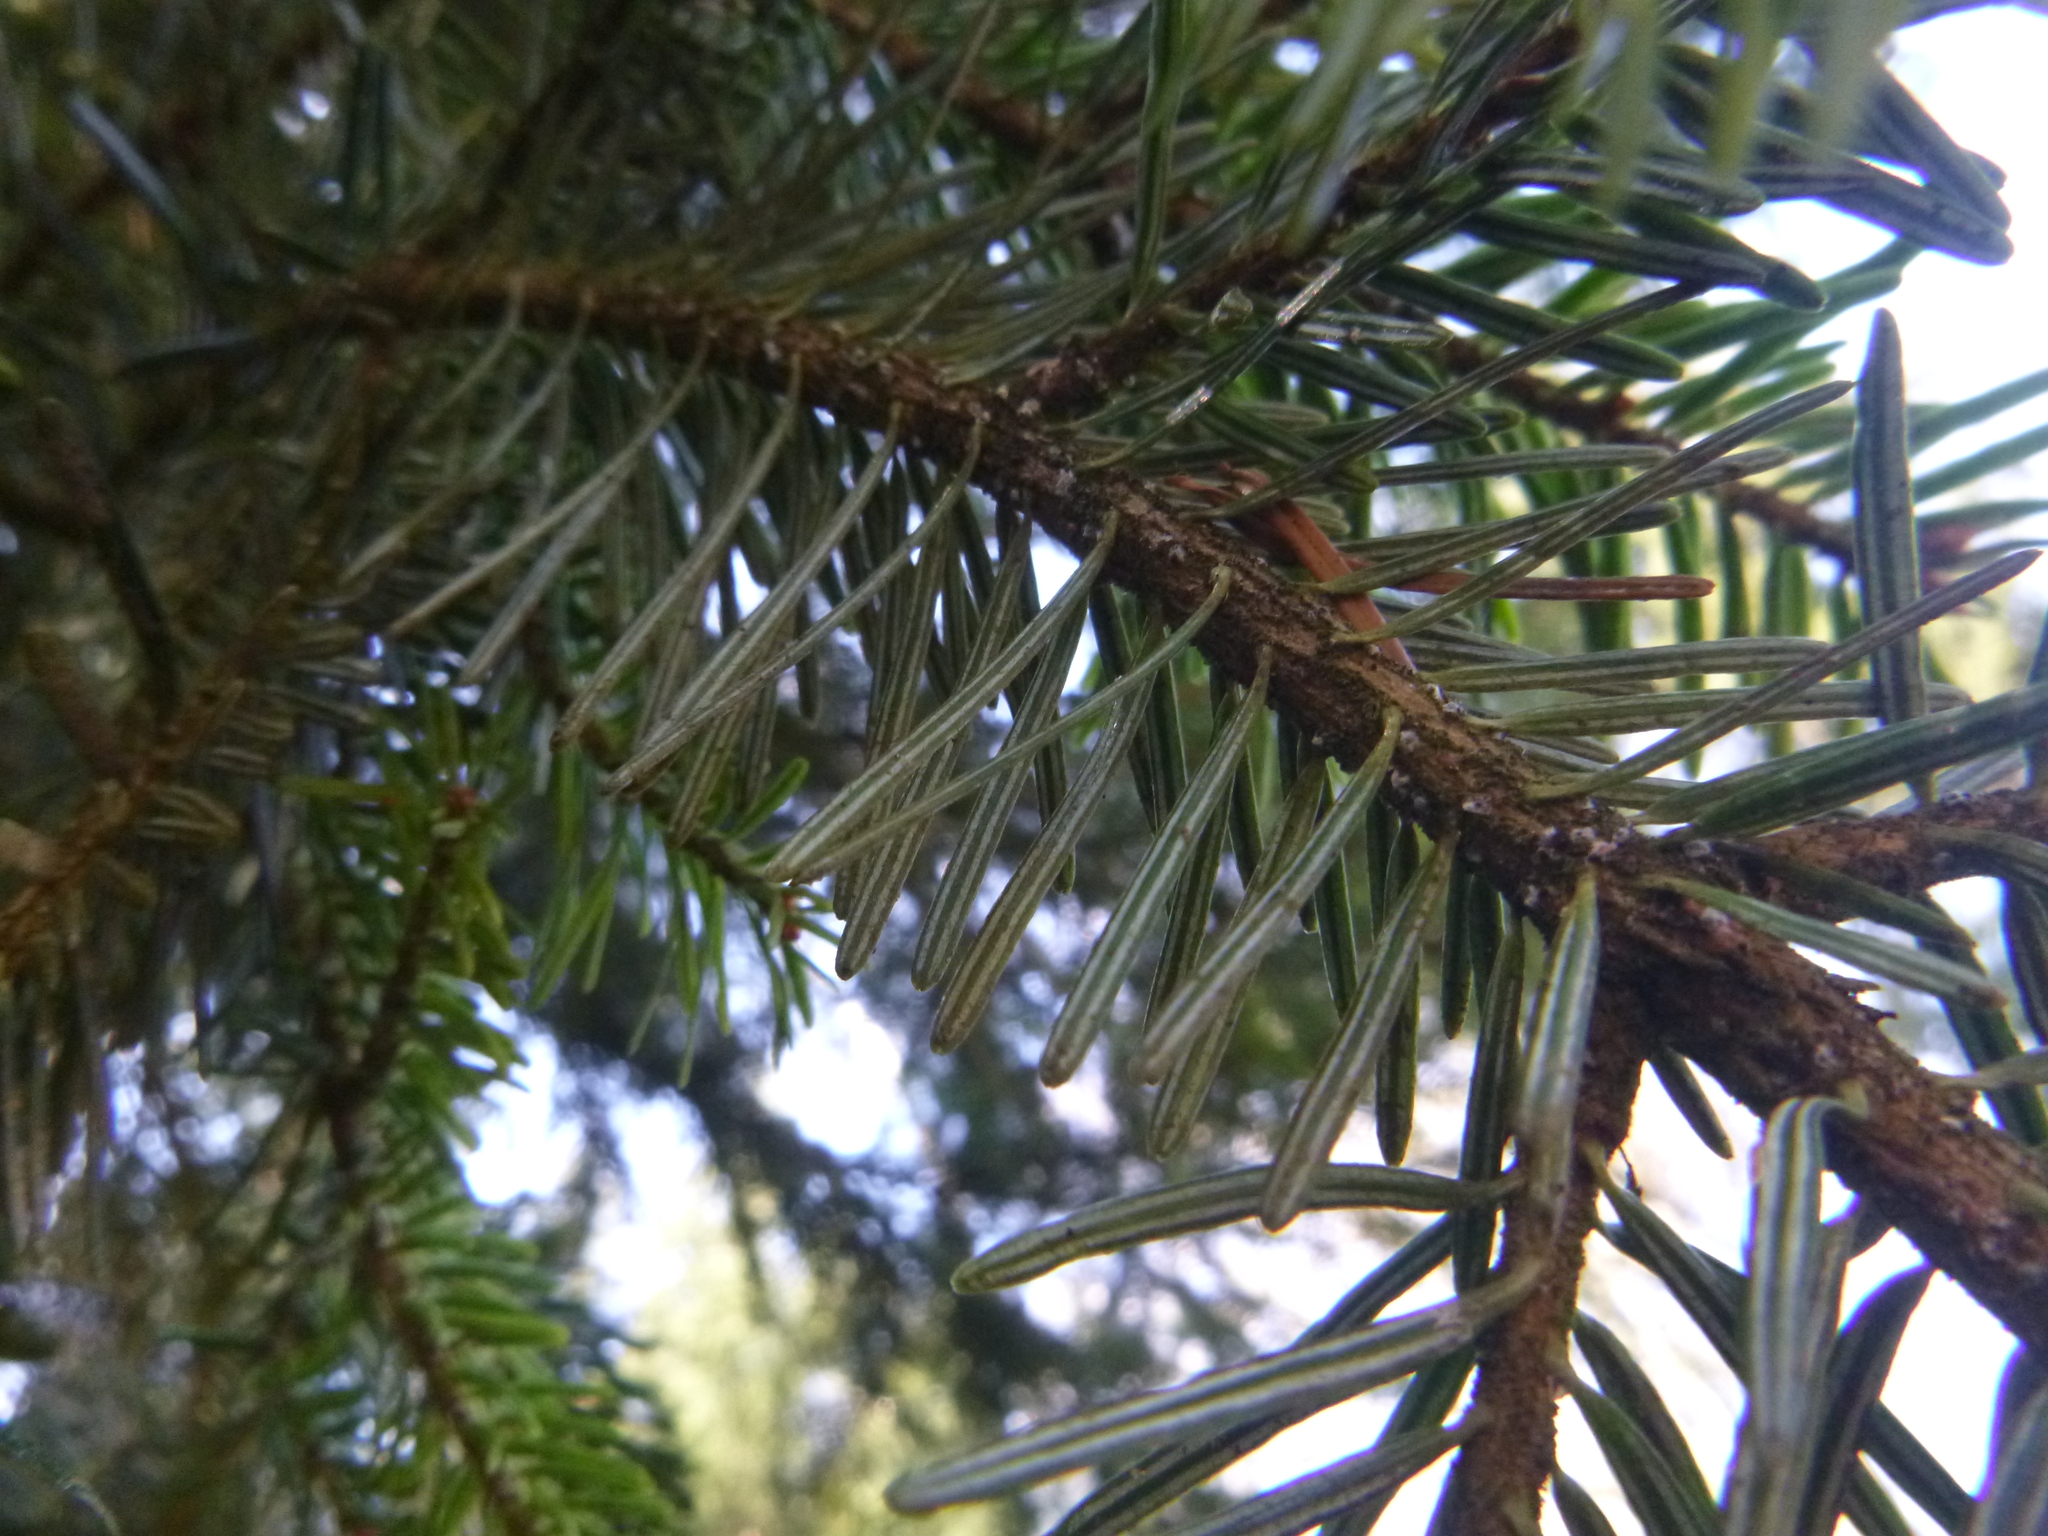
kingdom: Plantae
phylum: Tracheophyta
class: Pinopsida
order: Pinales
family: Pinaceae
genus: Abies
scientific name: Abies alba
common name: Silver fir
